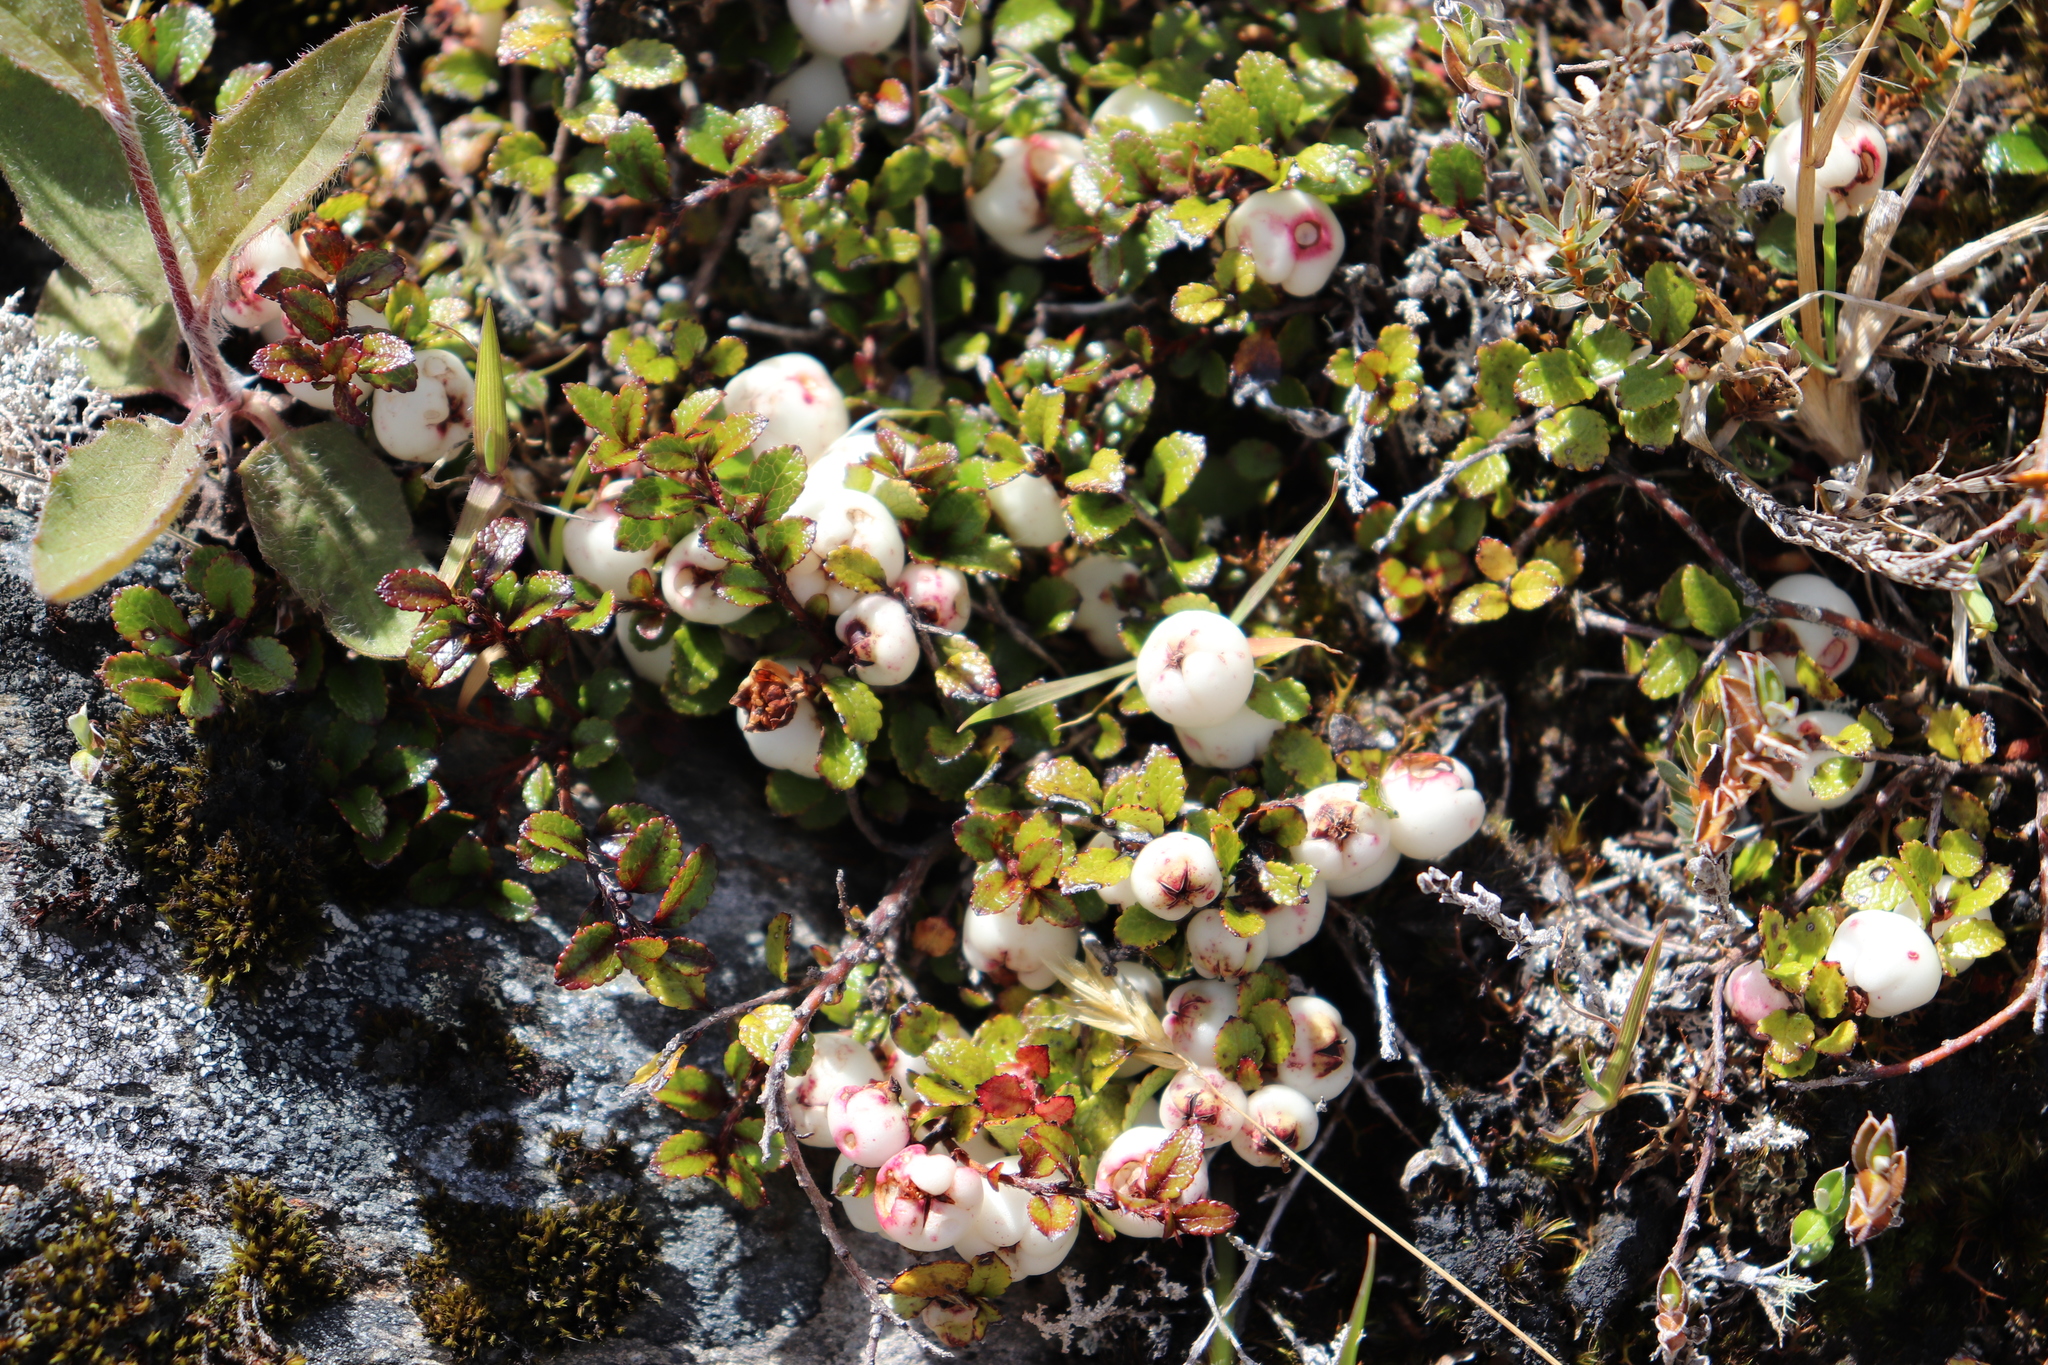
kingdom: Plantae
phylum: Tracheophyta
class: Magnoliopsida
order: Ericales
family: Ericaceae
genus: Gaultheria
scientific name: Gaultheria depressa
